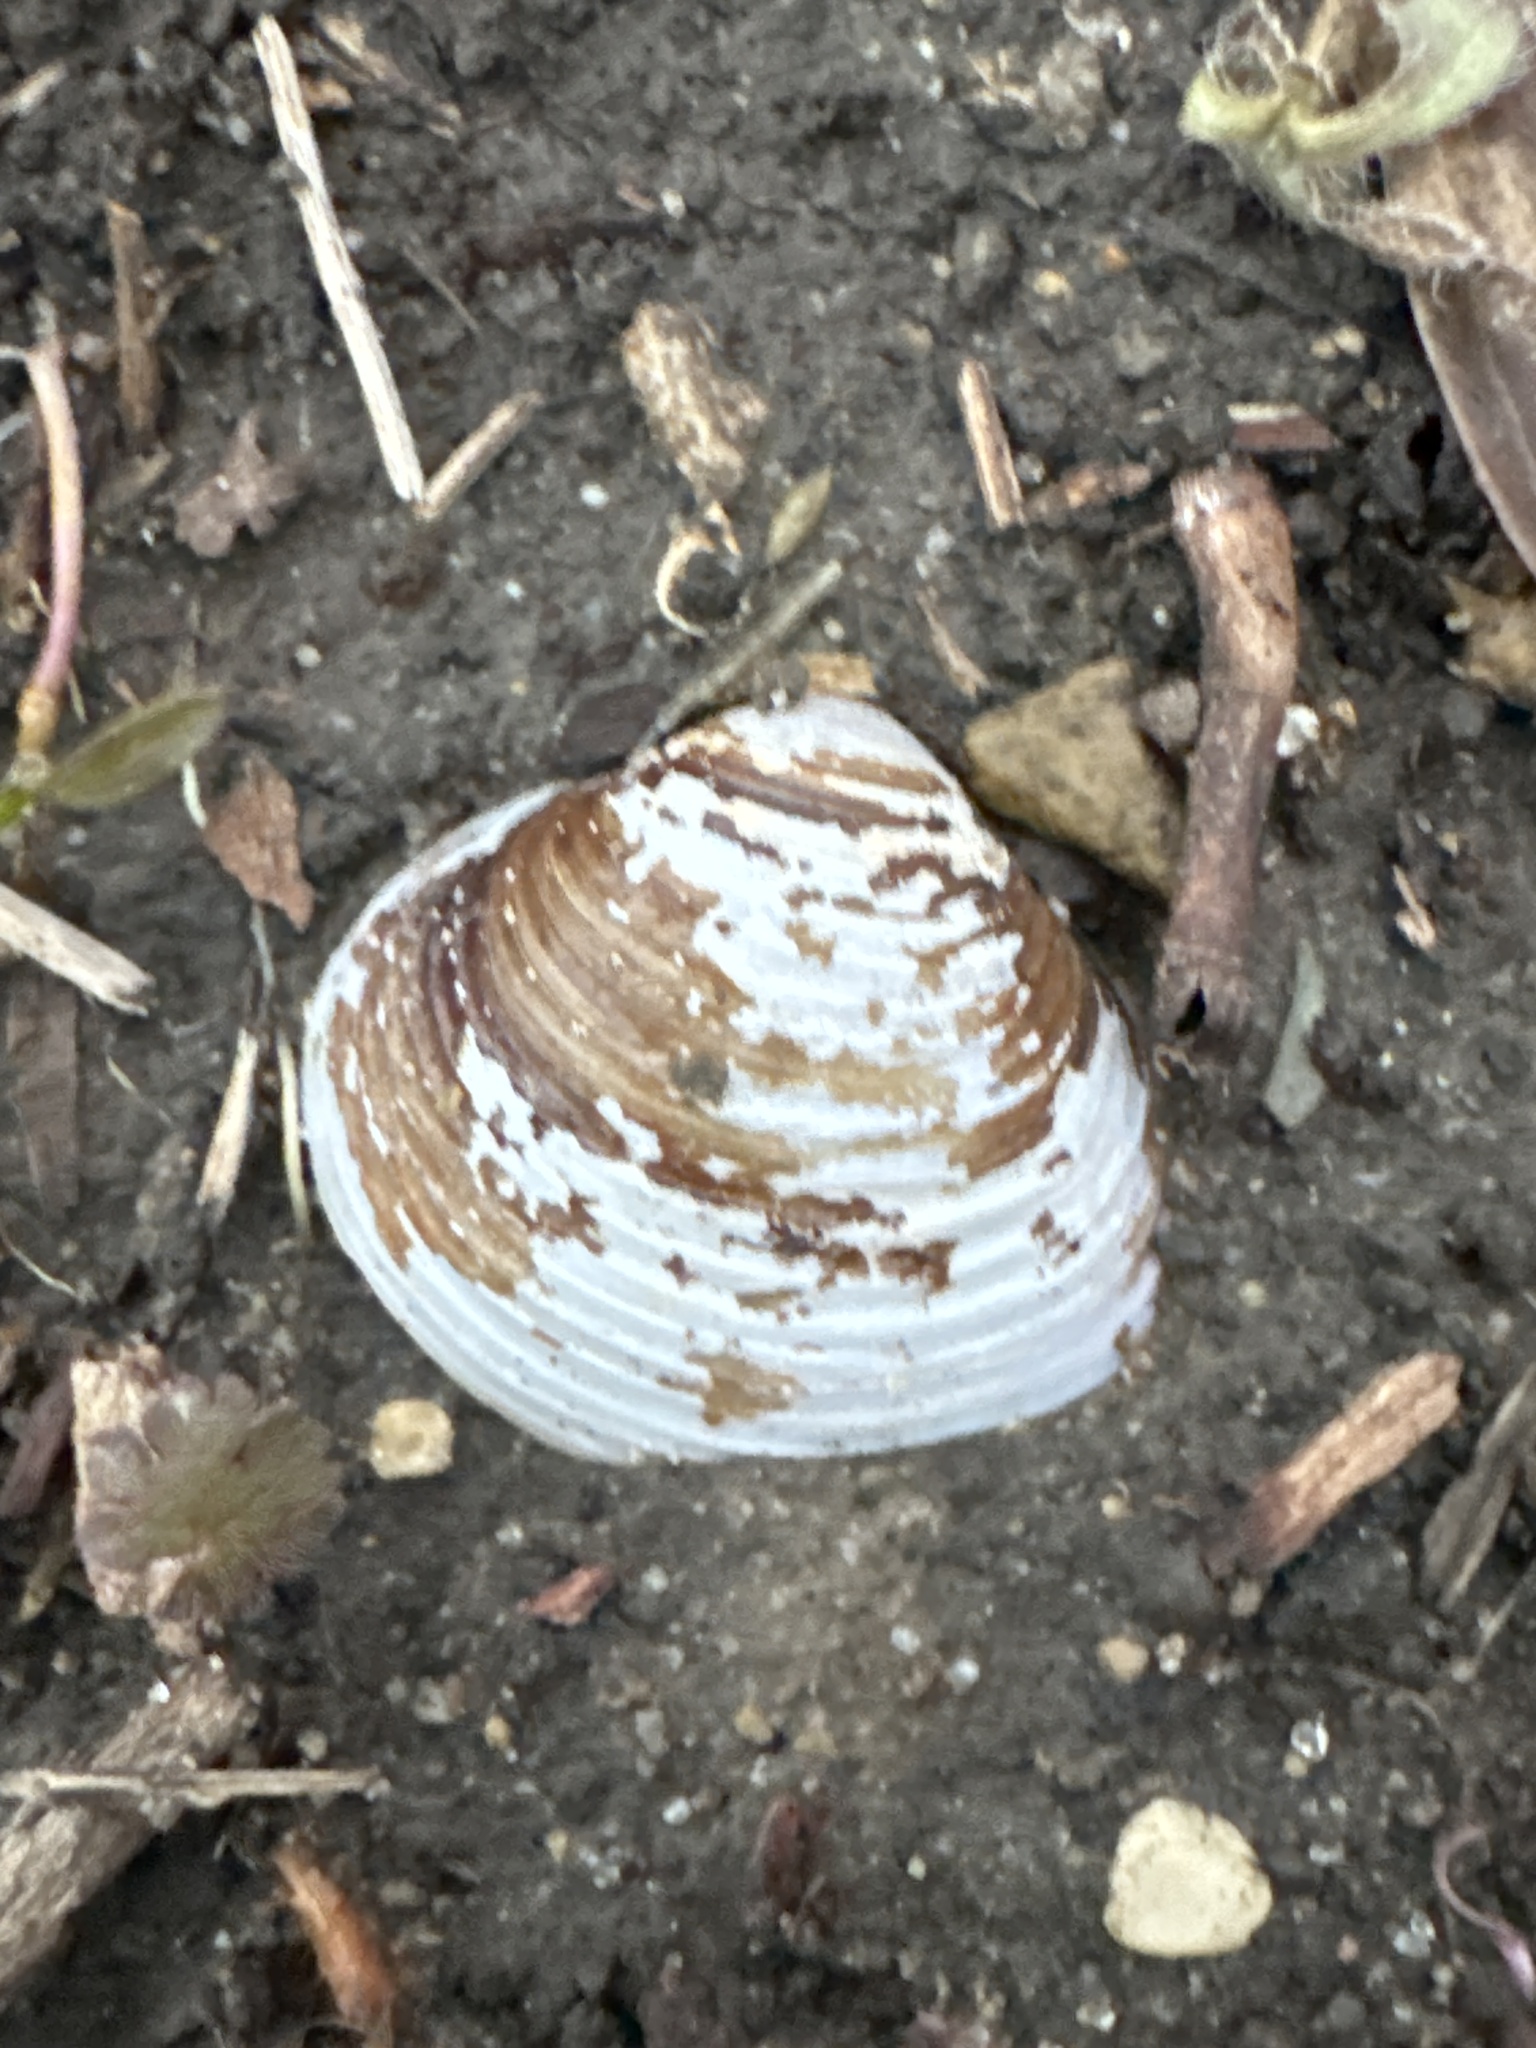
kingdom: Animalia
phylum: Mollusca
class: Bivalvia
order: Venerida
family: Cyrenidae
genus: Corbicula
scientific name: Corbicula fluminea
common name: Asian clam
